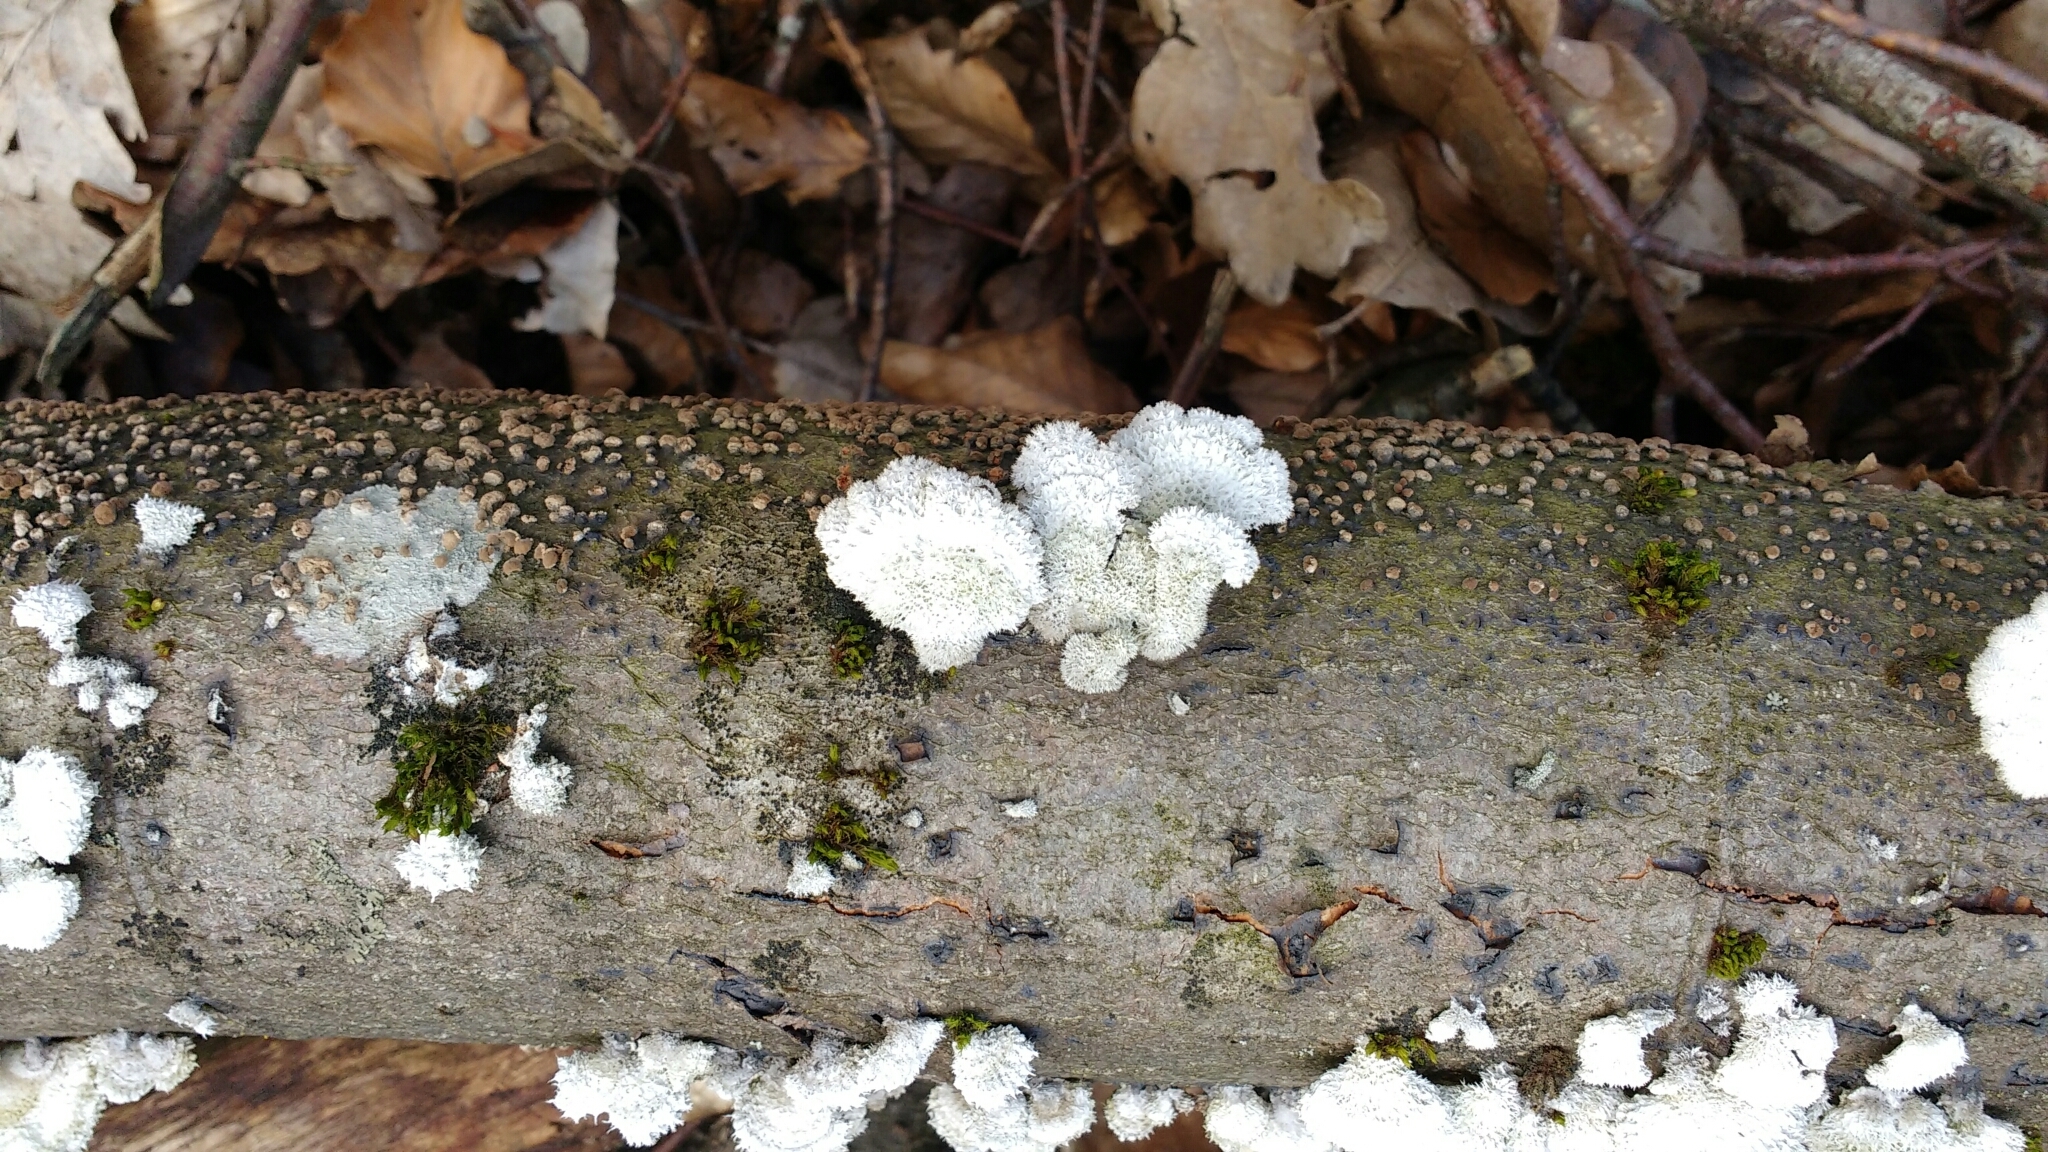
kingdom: Fungi
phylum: Basidiomycota
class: Agaricomycetes
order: Agaricales
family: Schizophyllaceae
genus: Schizophyllum
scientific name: Schizophyllum commune
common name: Common porecrust
